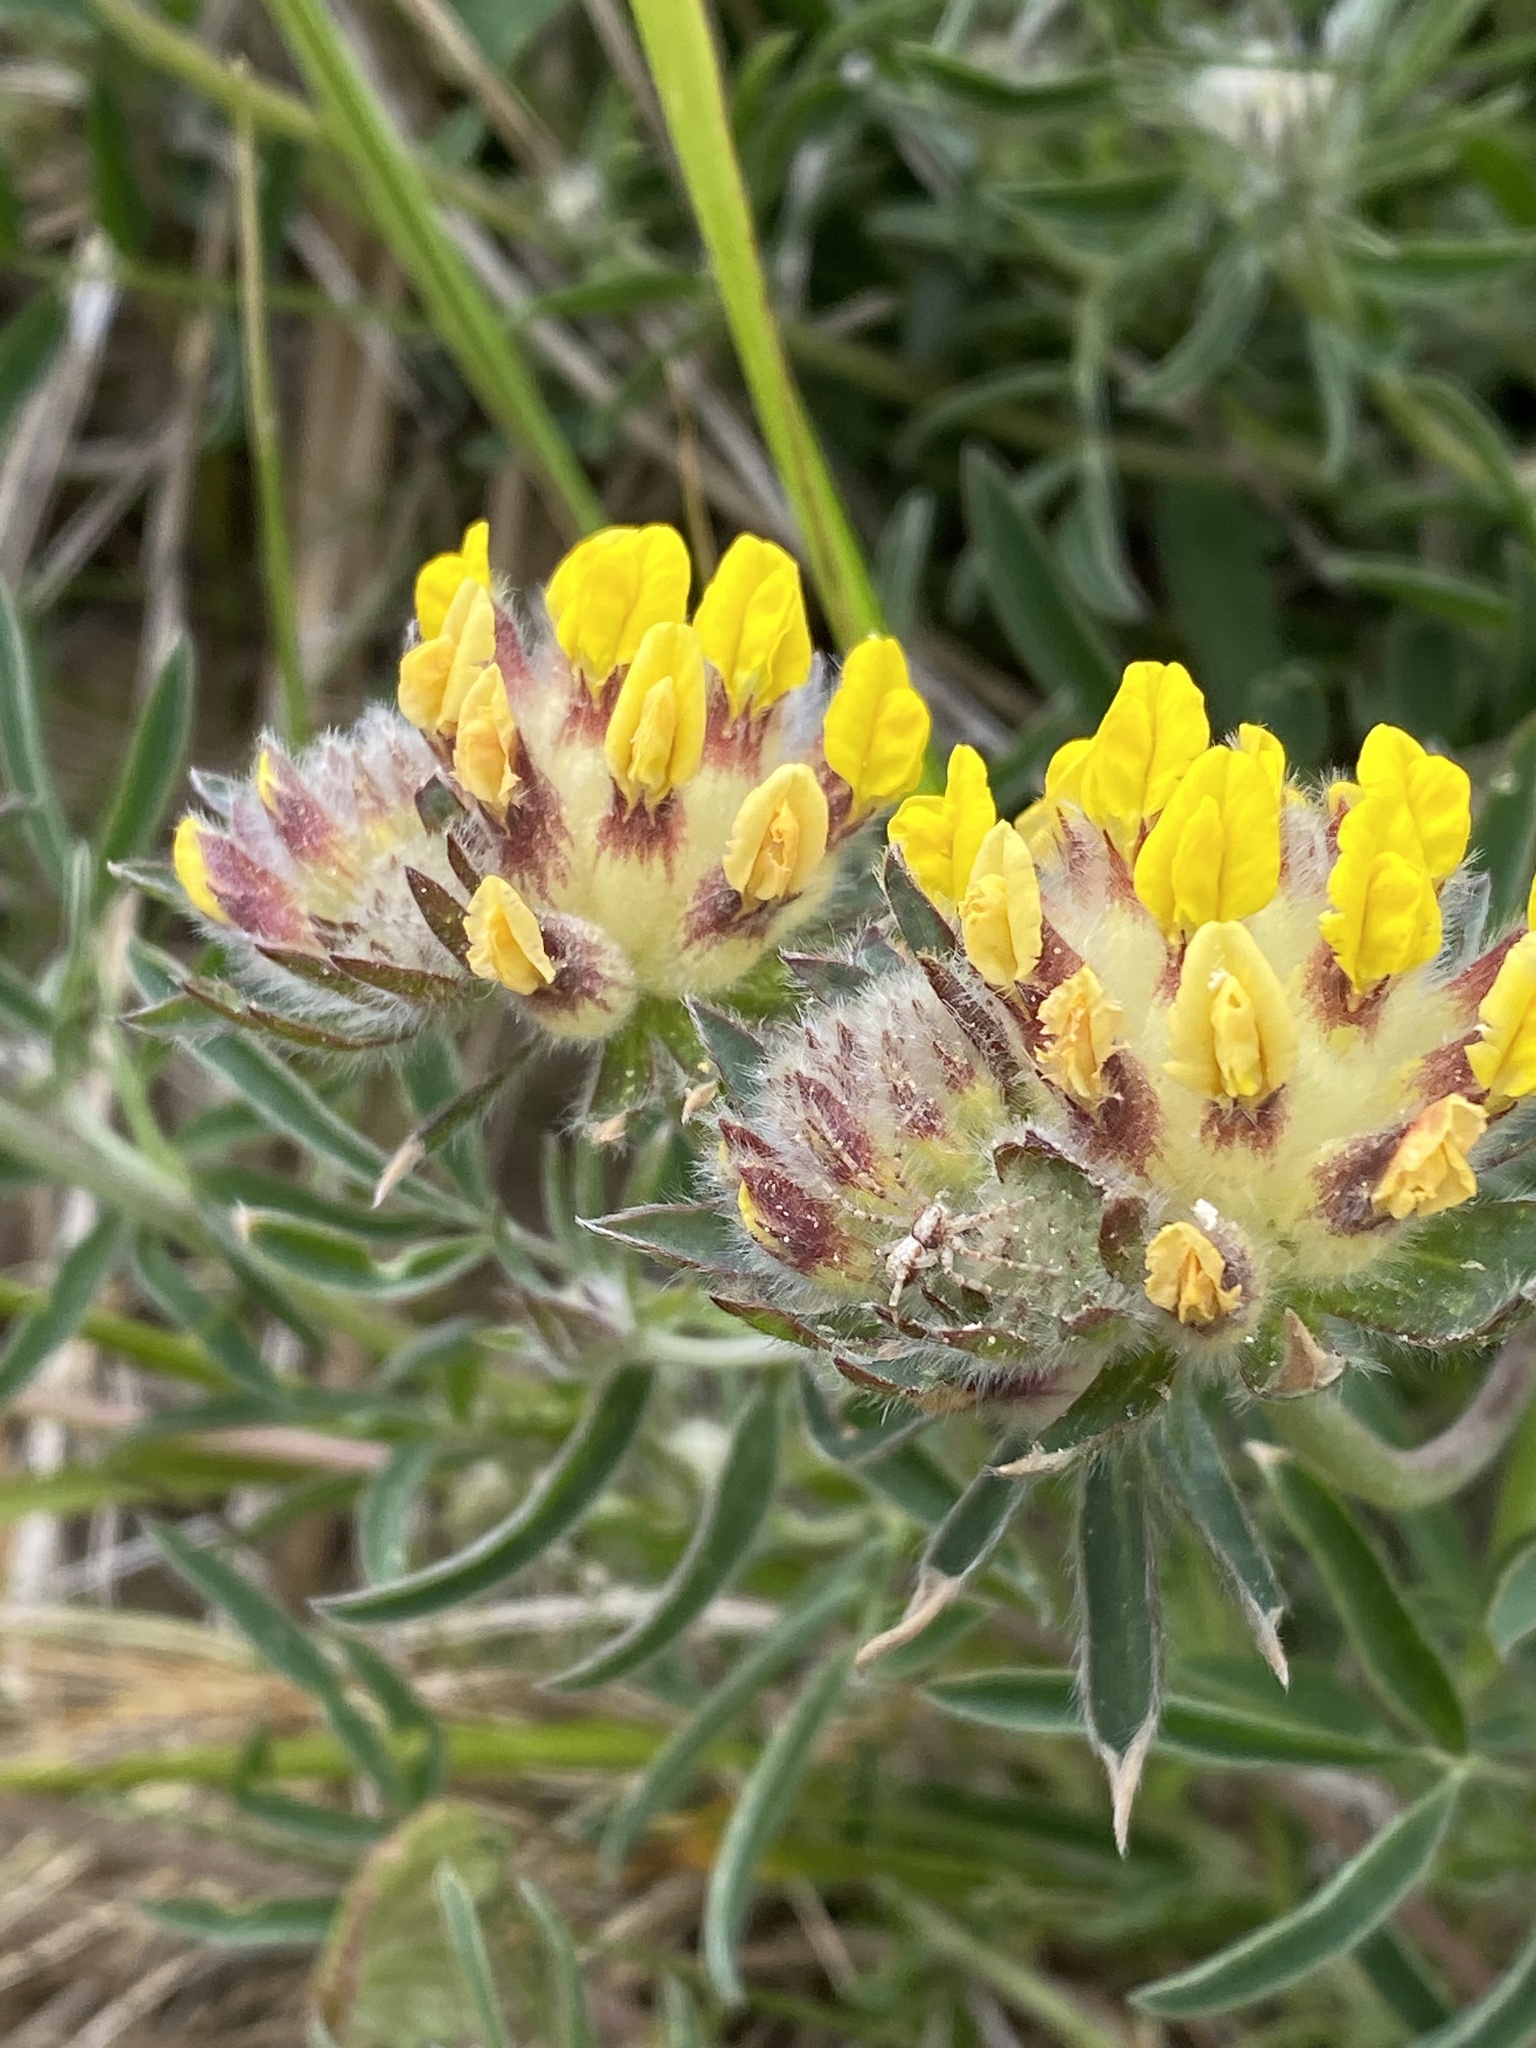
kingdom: Plantae
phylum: Tracheophyta
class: Magnoliopsida
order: Fabales
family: Fabaceae
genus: Anthyllis
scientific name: Anthyllis vulneraria
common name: Kidney vetch
